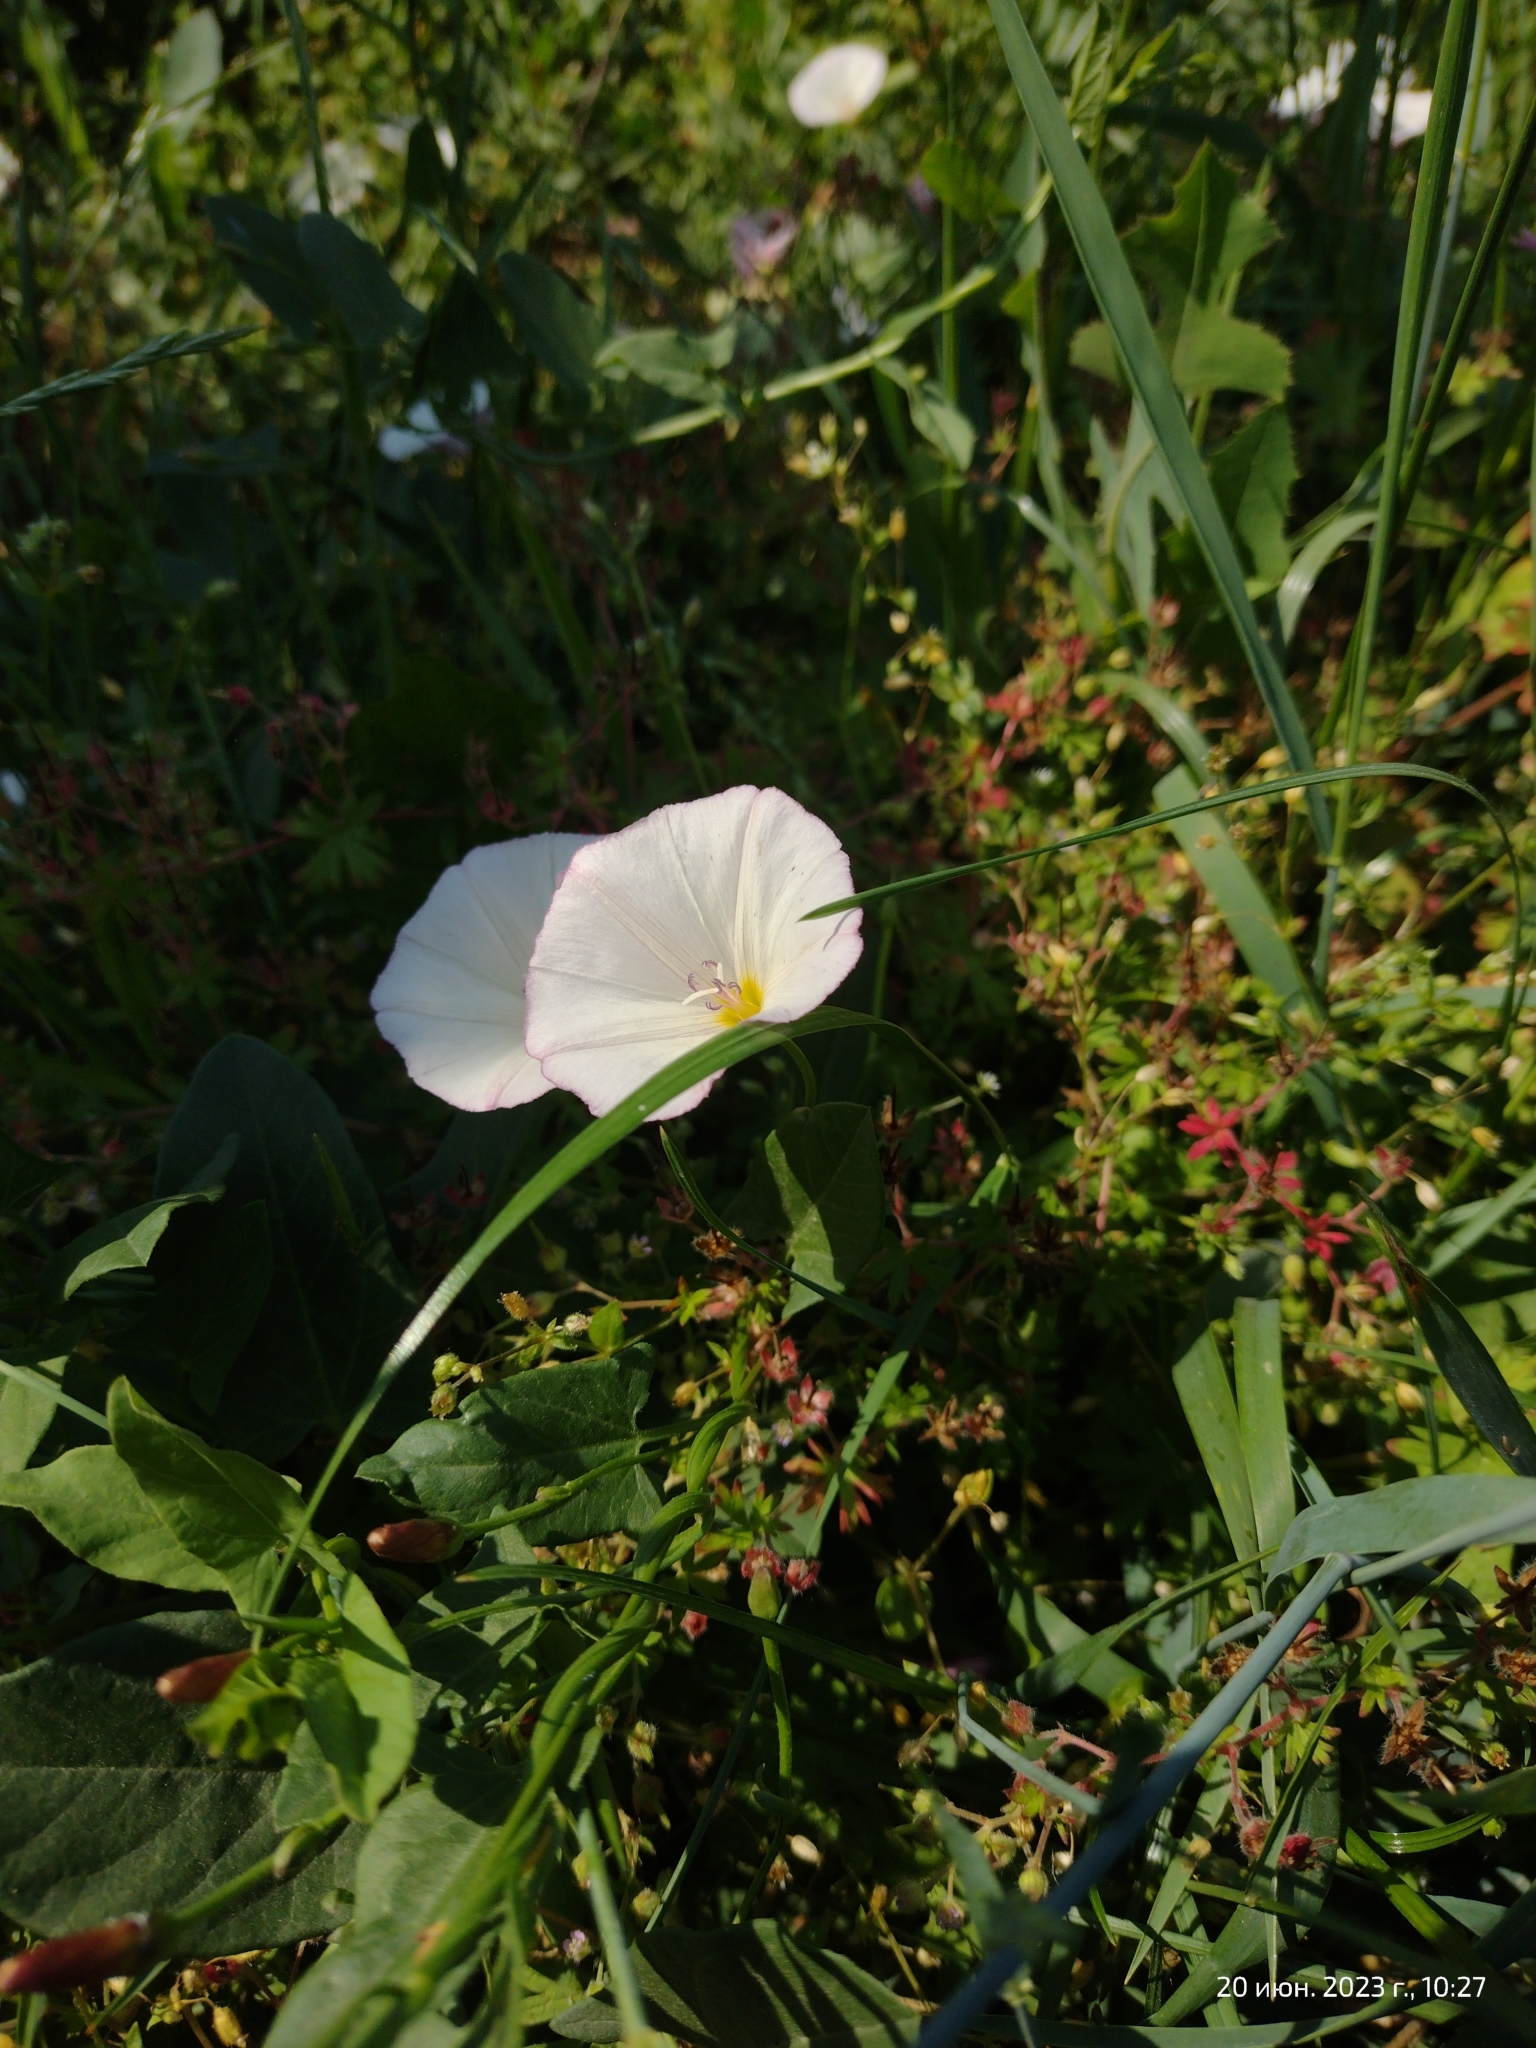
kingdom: Plantae
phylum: Tracheophyta
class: Magnoliopsida
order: Solanales
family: Convolvulaceae
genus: Convolvulus
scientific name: Convolvulus arvensis
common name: Field bindweed
